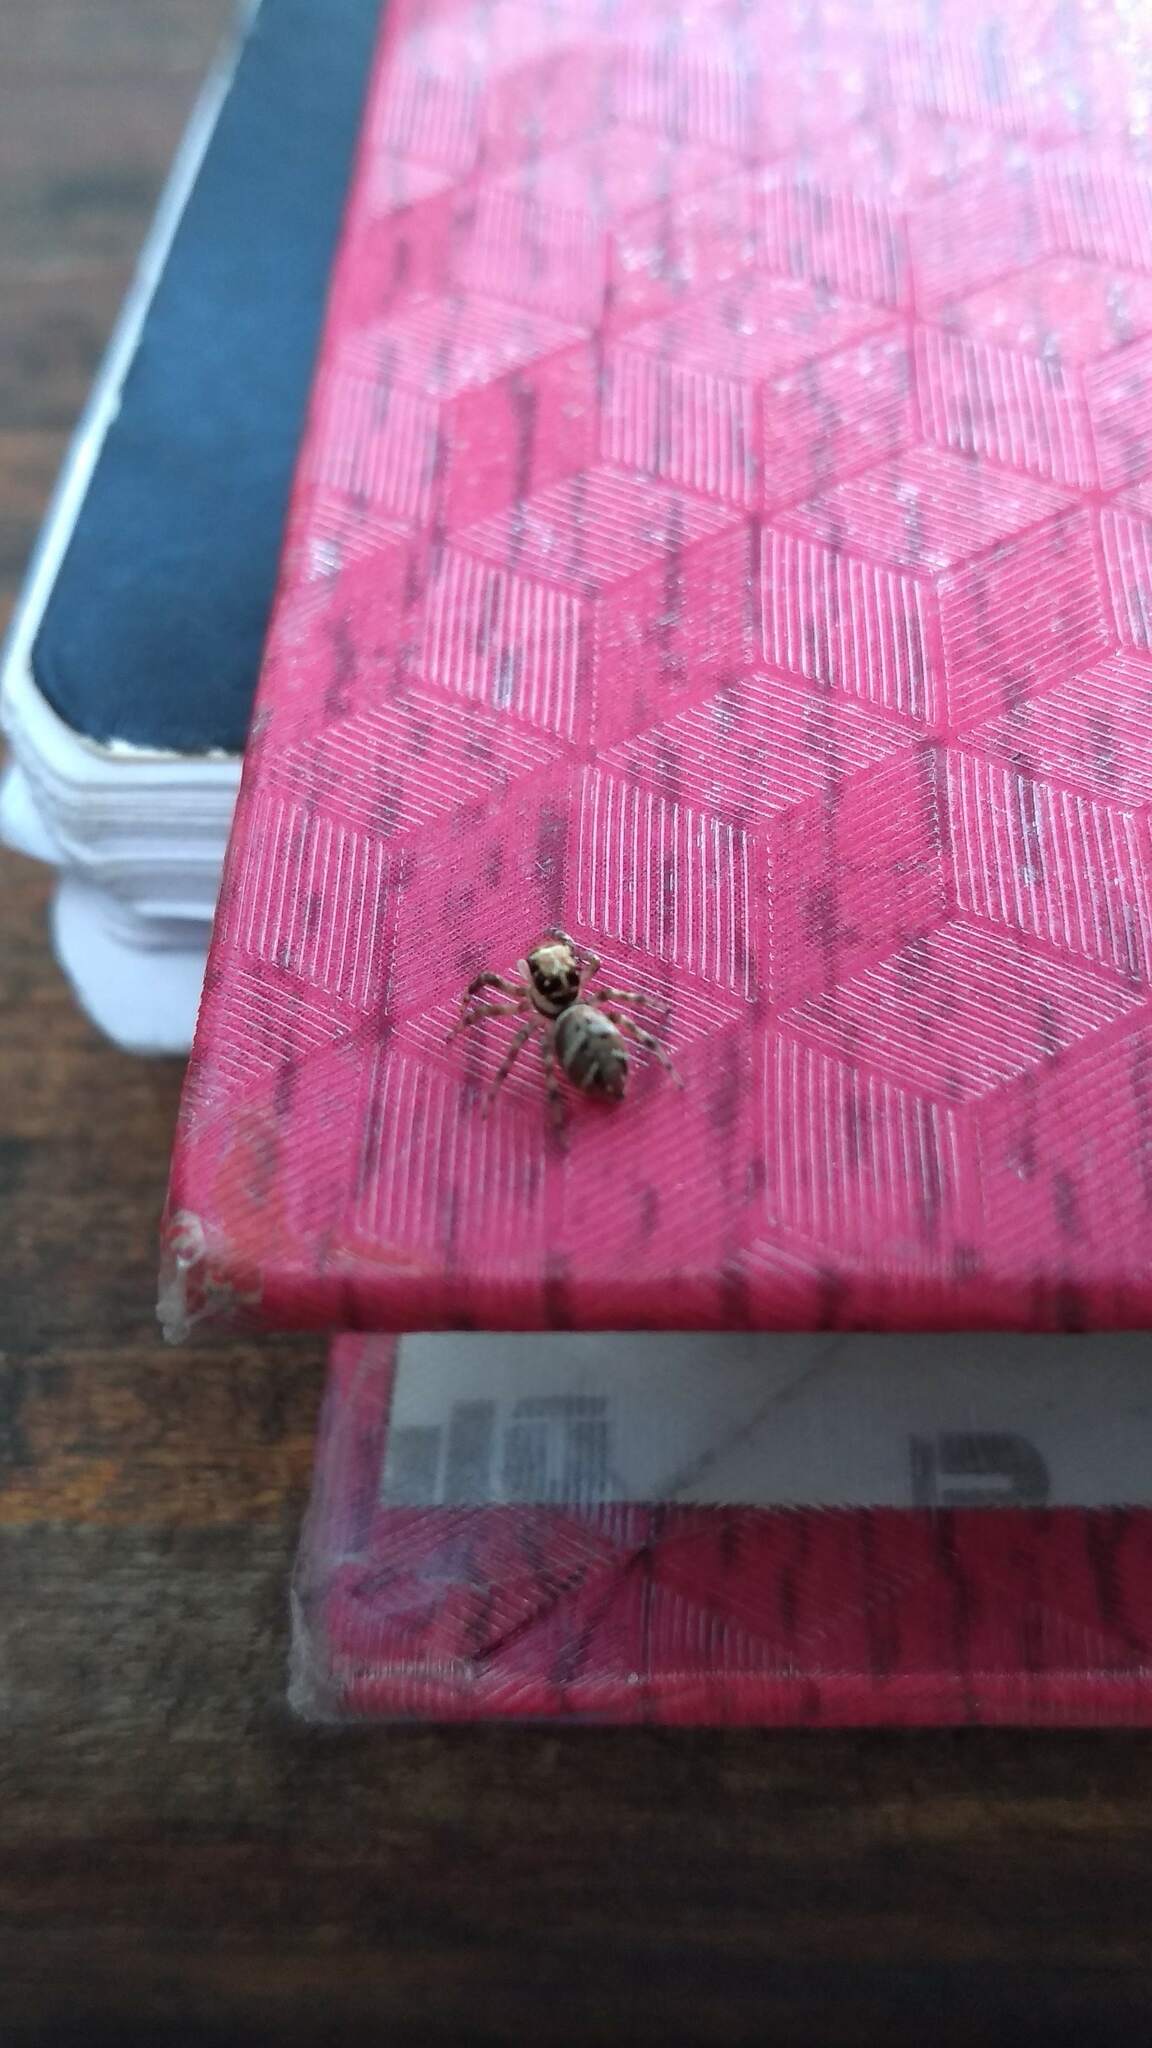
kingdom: Animalia
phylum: Arthropoda
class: Arachnida
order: Araneae
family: Salticidae
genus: Philira
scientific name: Philira micans
